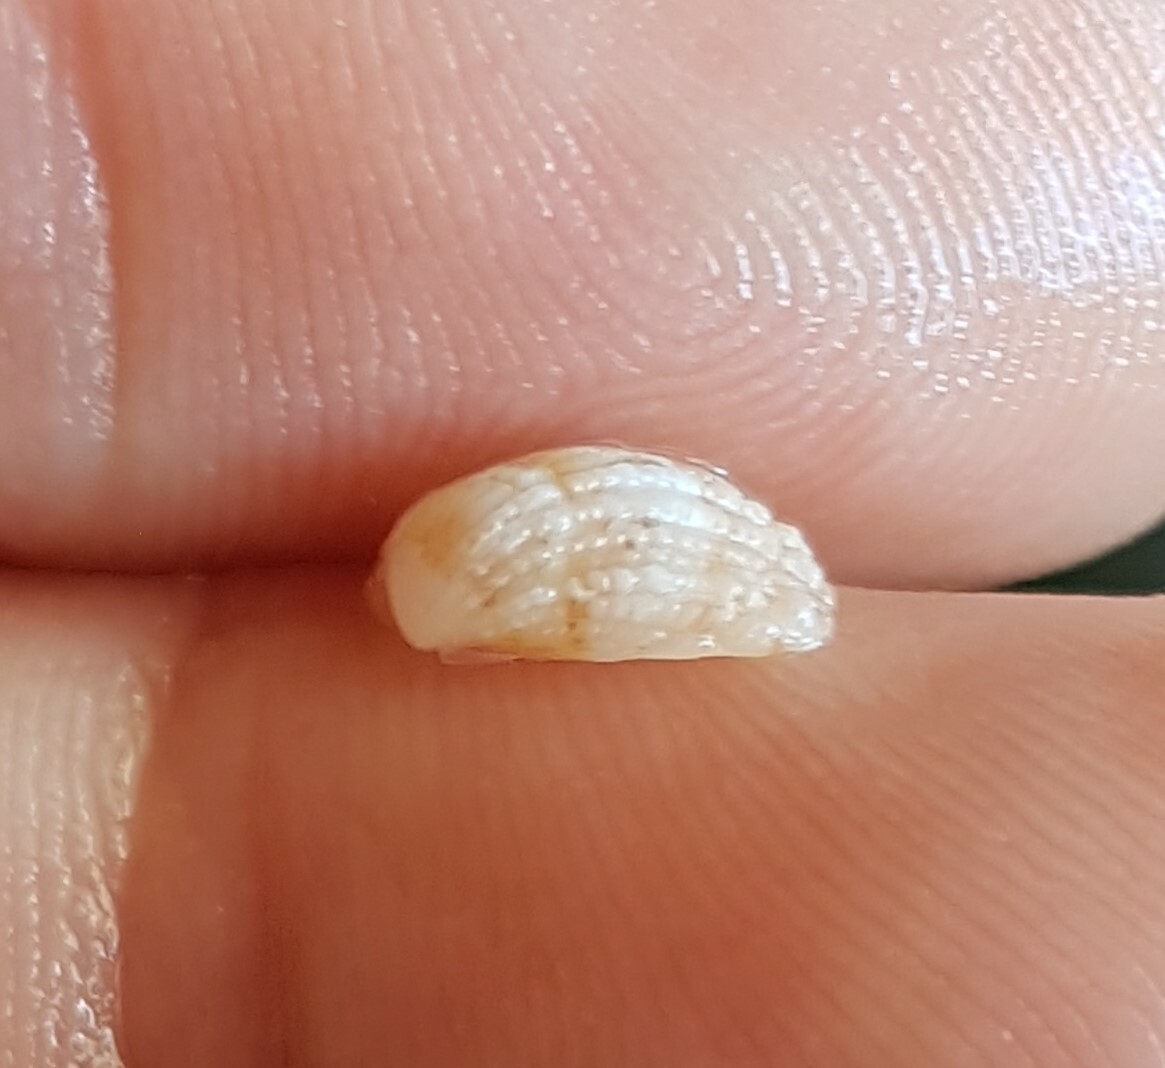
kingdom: Animalia
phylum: Mollusca
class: Bivalvia
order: Carditida
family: Carditidae
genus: Glans
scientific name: Glans trapezia
